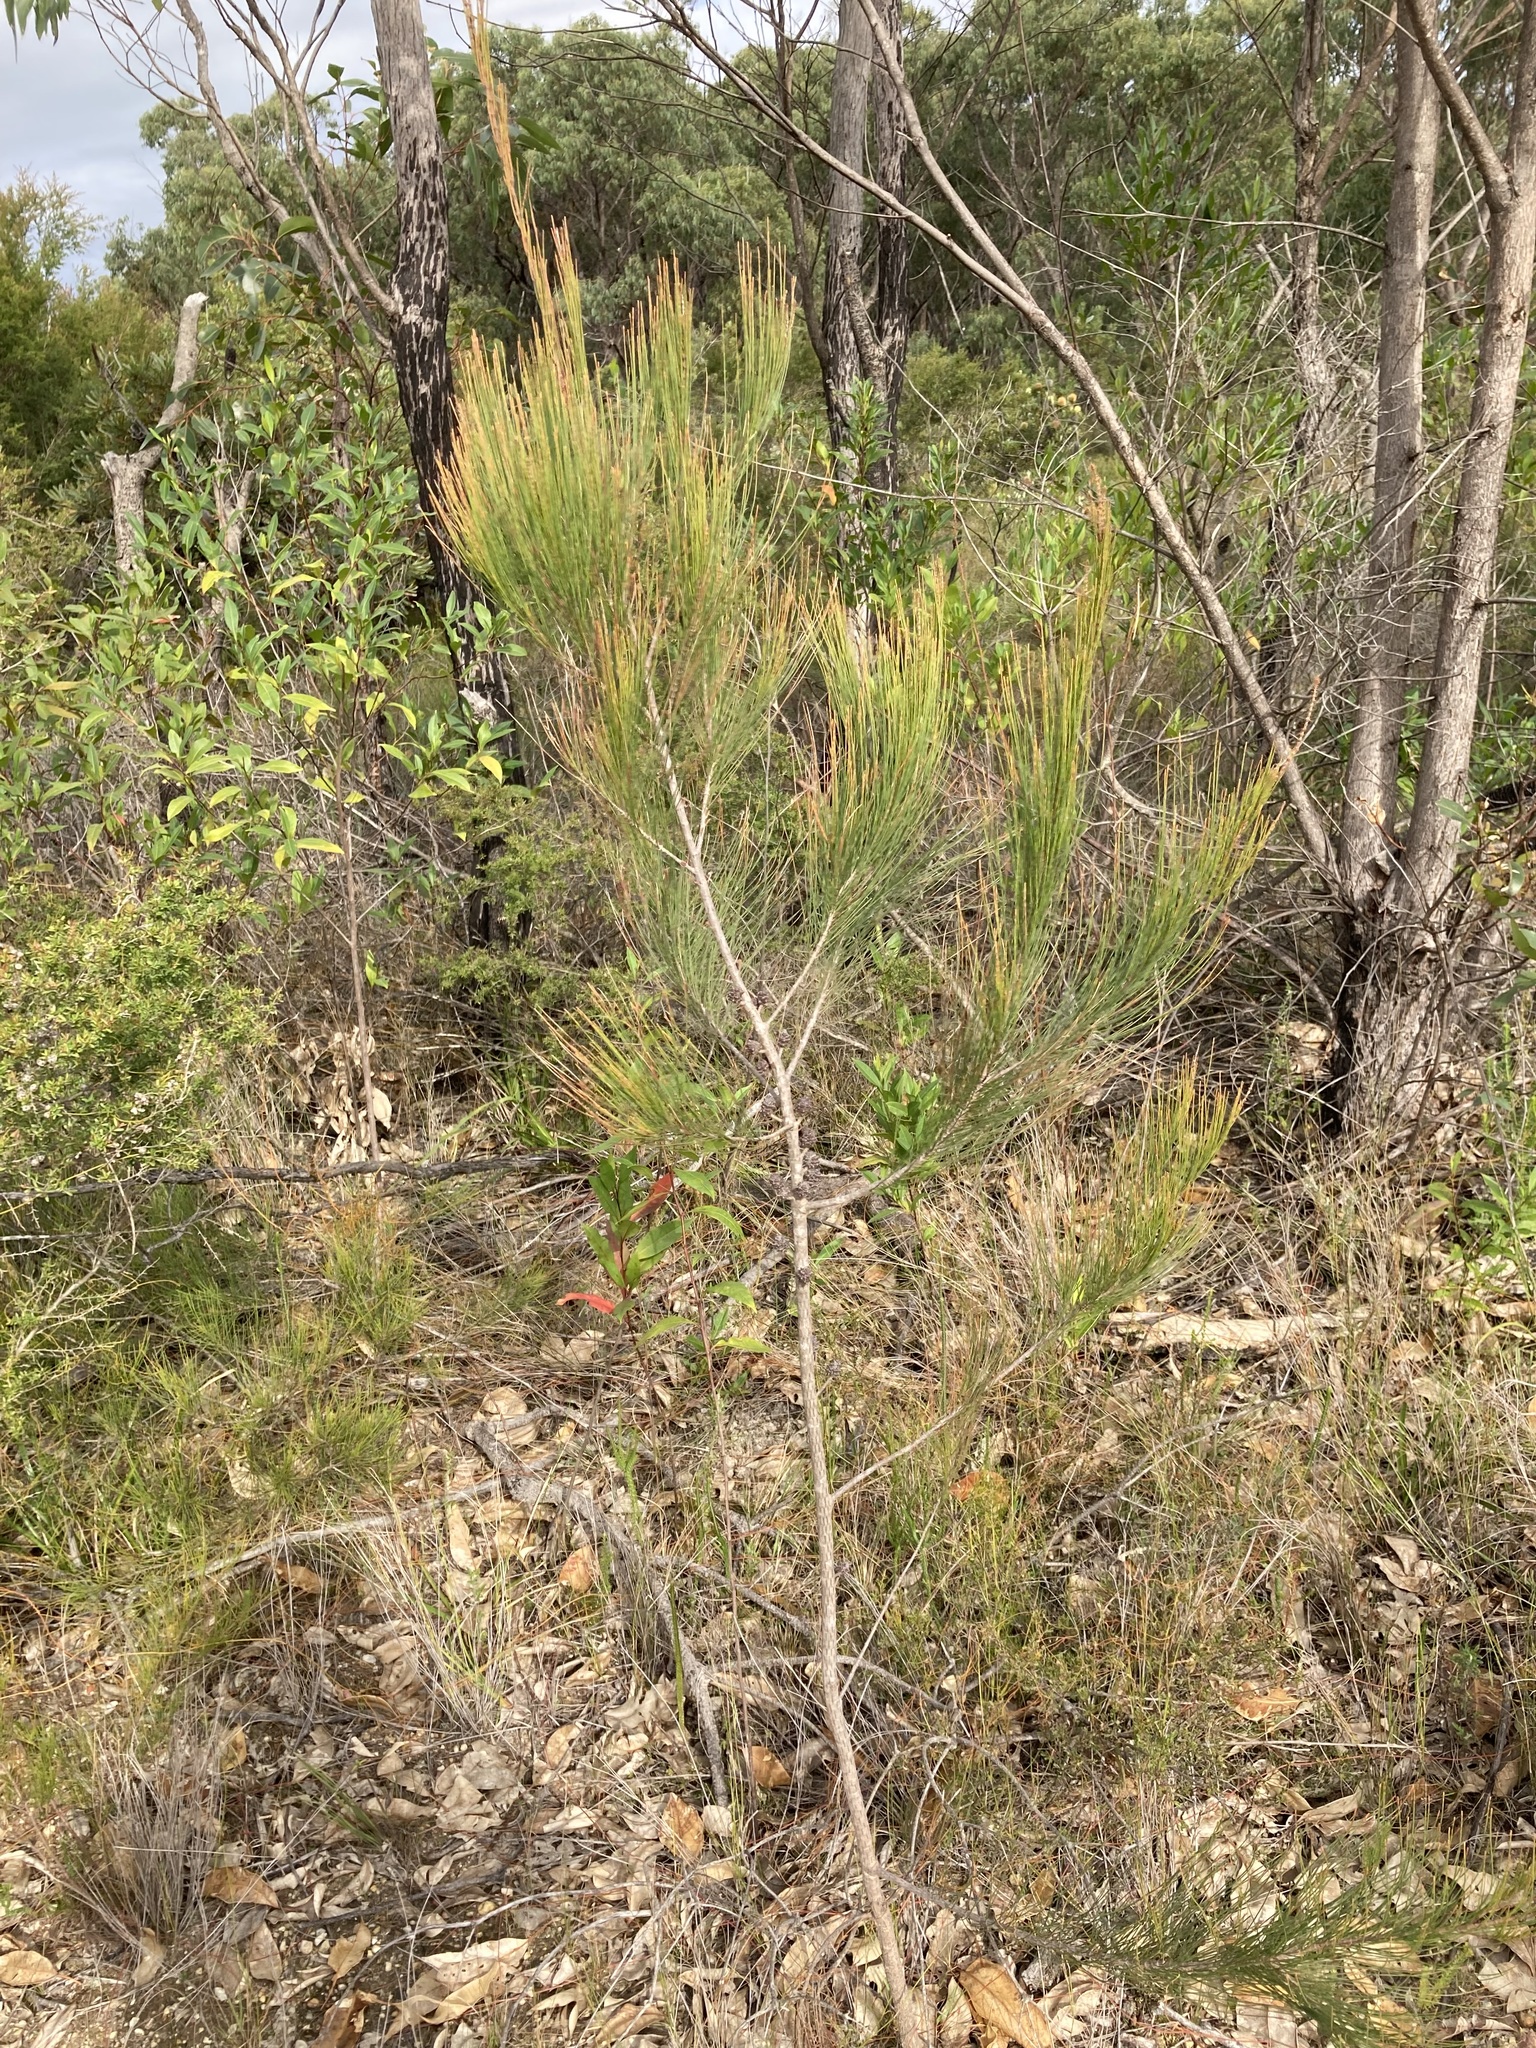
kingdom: Plantae
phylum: Tracheophyta
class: Magnoliopsida
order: Fagales
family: Casuarinaceae
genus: Allocasuarina
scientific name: Allocasuarina thalassoscopica
